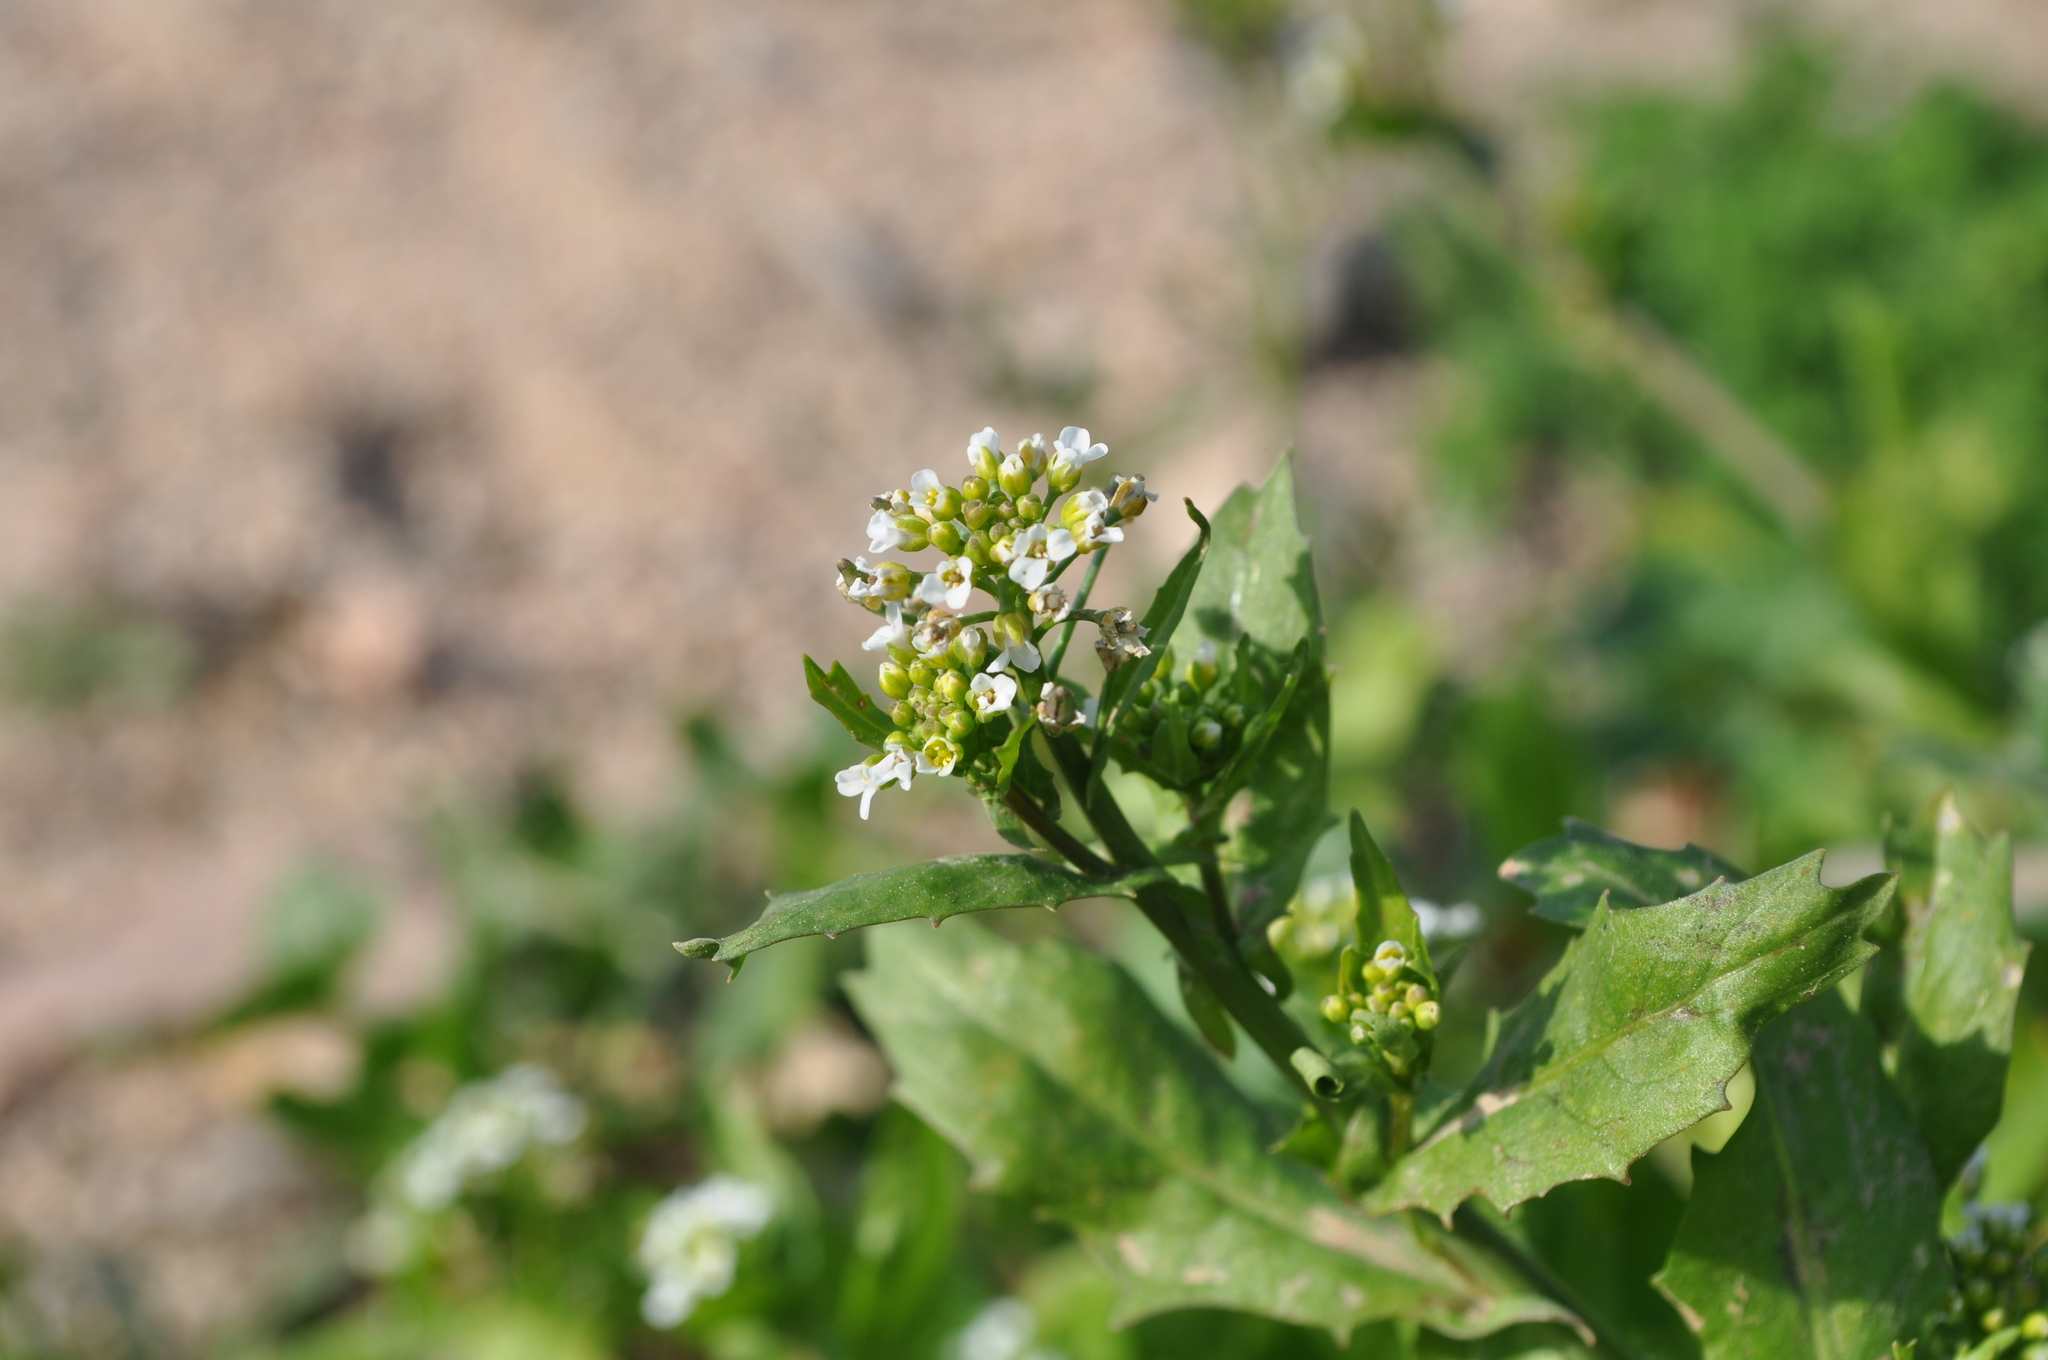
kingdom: Plantae
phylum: Tracheophyta
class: Magnoliopsida
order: Brassicales
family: Brassicaceae
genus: Calepina
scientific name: Calepina irregularis
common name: White ballmustard
